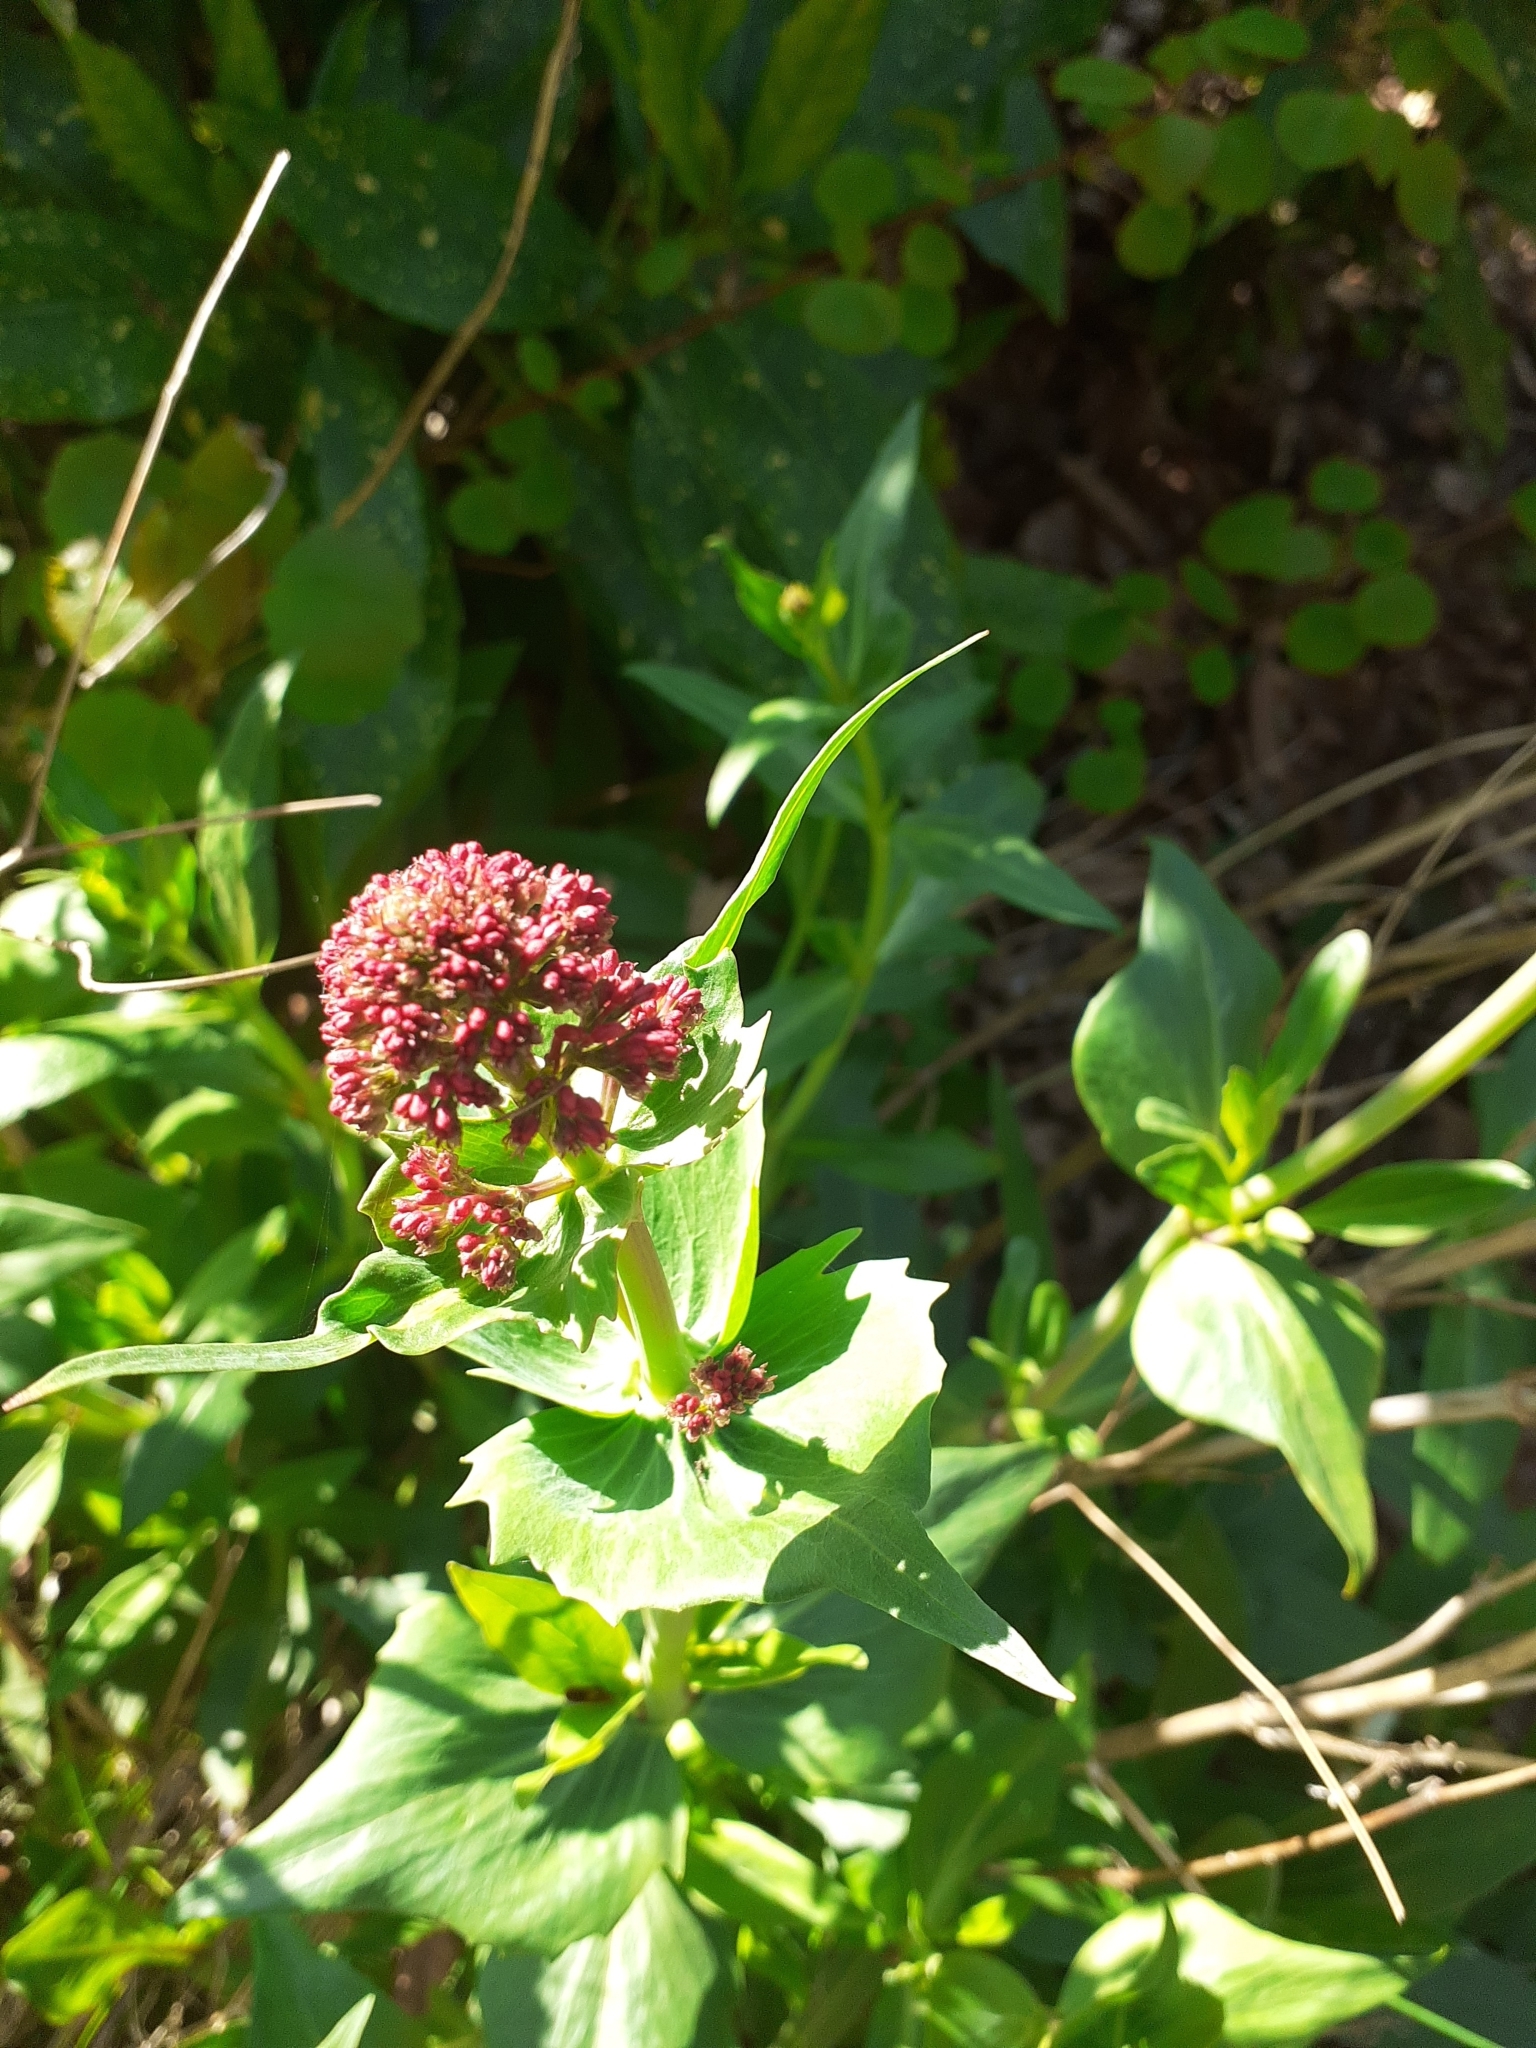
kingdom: Plantae
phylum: Tracheophyta
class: Magnoliopsida
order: Dipsacales
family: Caprifoliaceae
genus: Centranthus
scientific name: Centranthus ruber
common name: Red valerian
